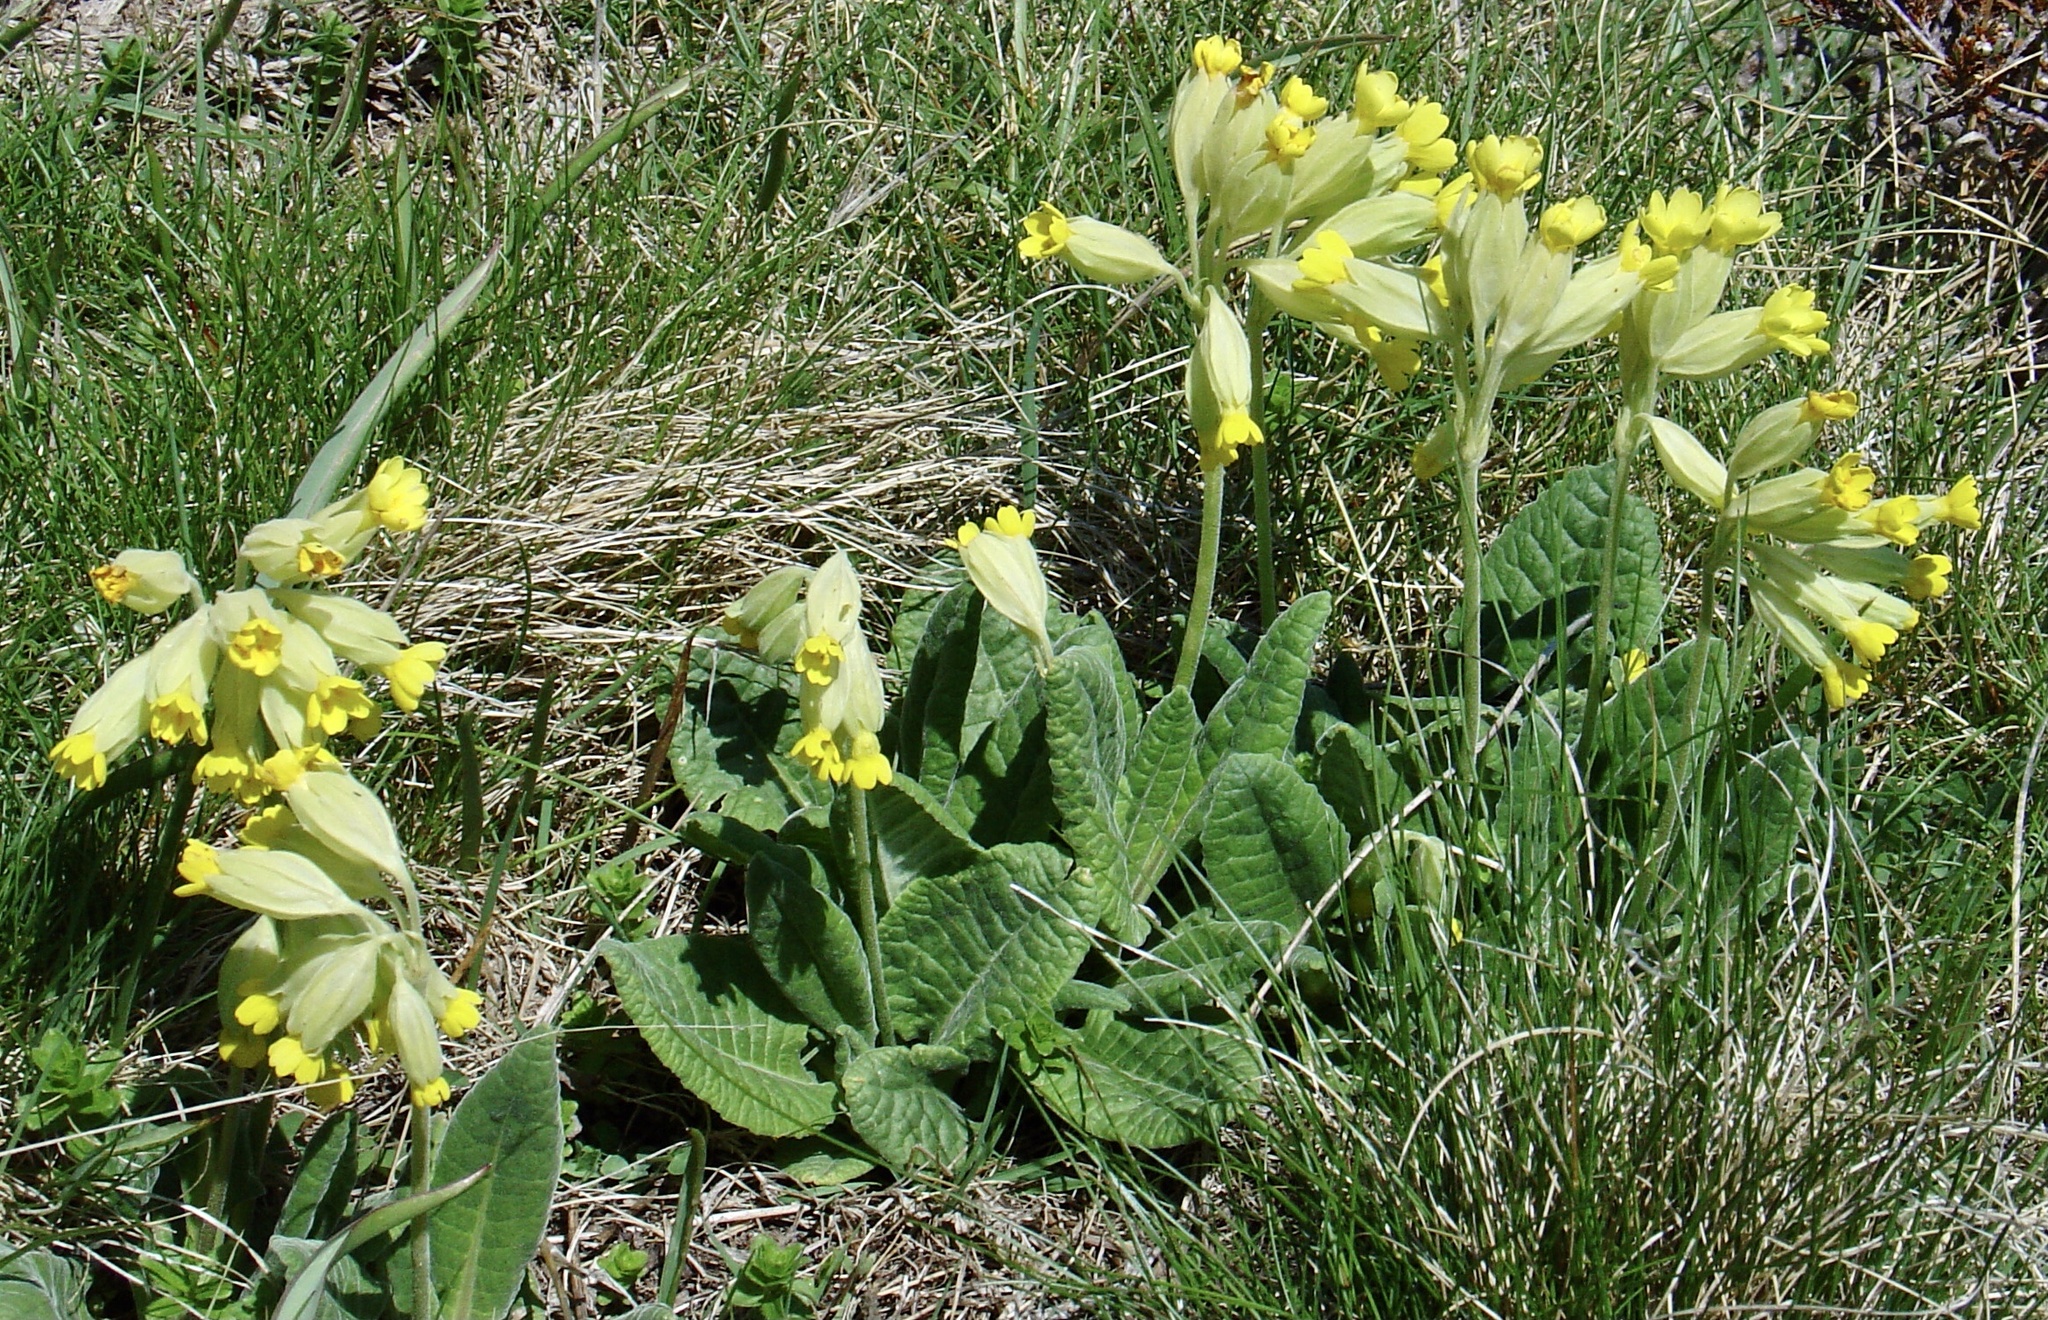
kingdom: Plantae
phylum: Tracheophyta
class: Magnoliopsida
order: Ericales
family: Primulaceae
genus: Primula
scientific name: Primula veris
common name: Cowslip
